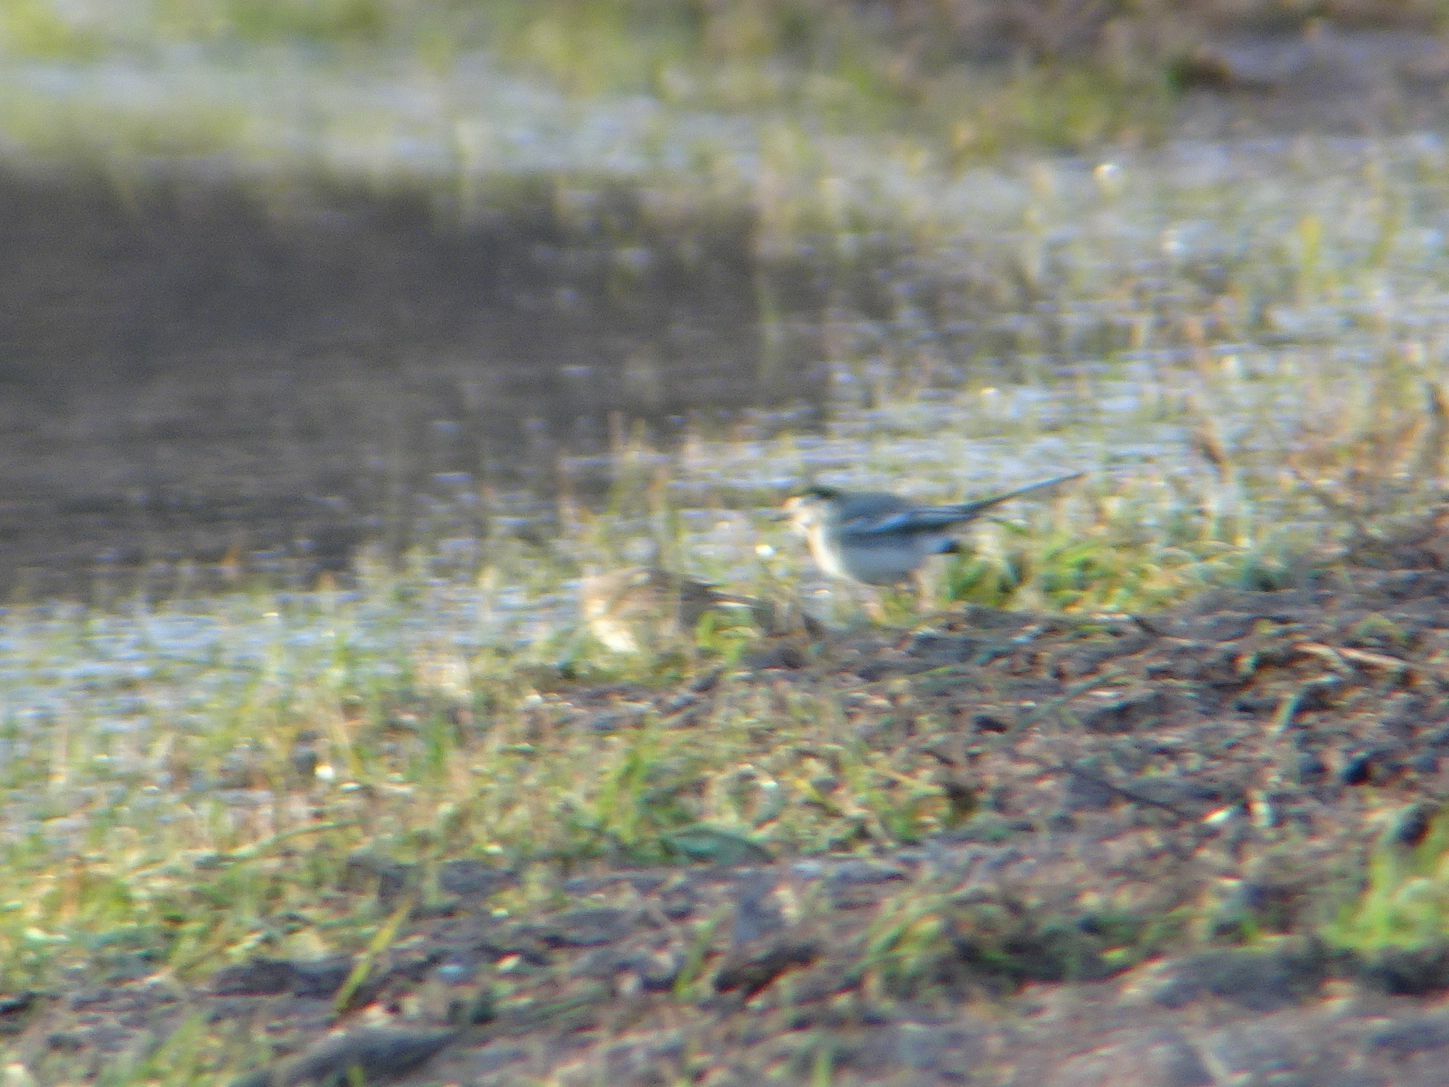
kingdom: Animalia
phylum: Chordata
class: Aves
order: Passeriformes
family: Motacillidae
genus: Motacilla
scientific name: Motacilla alba
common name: White wagtail
